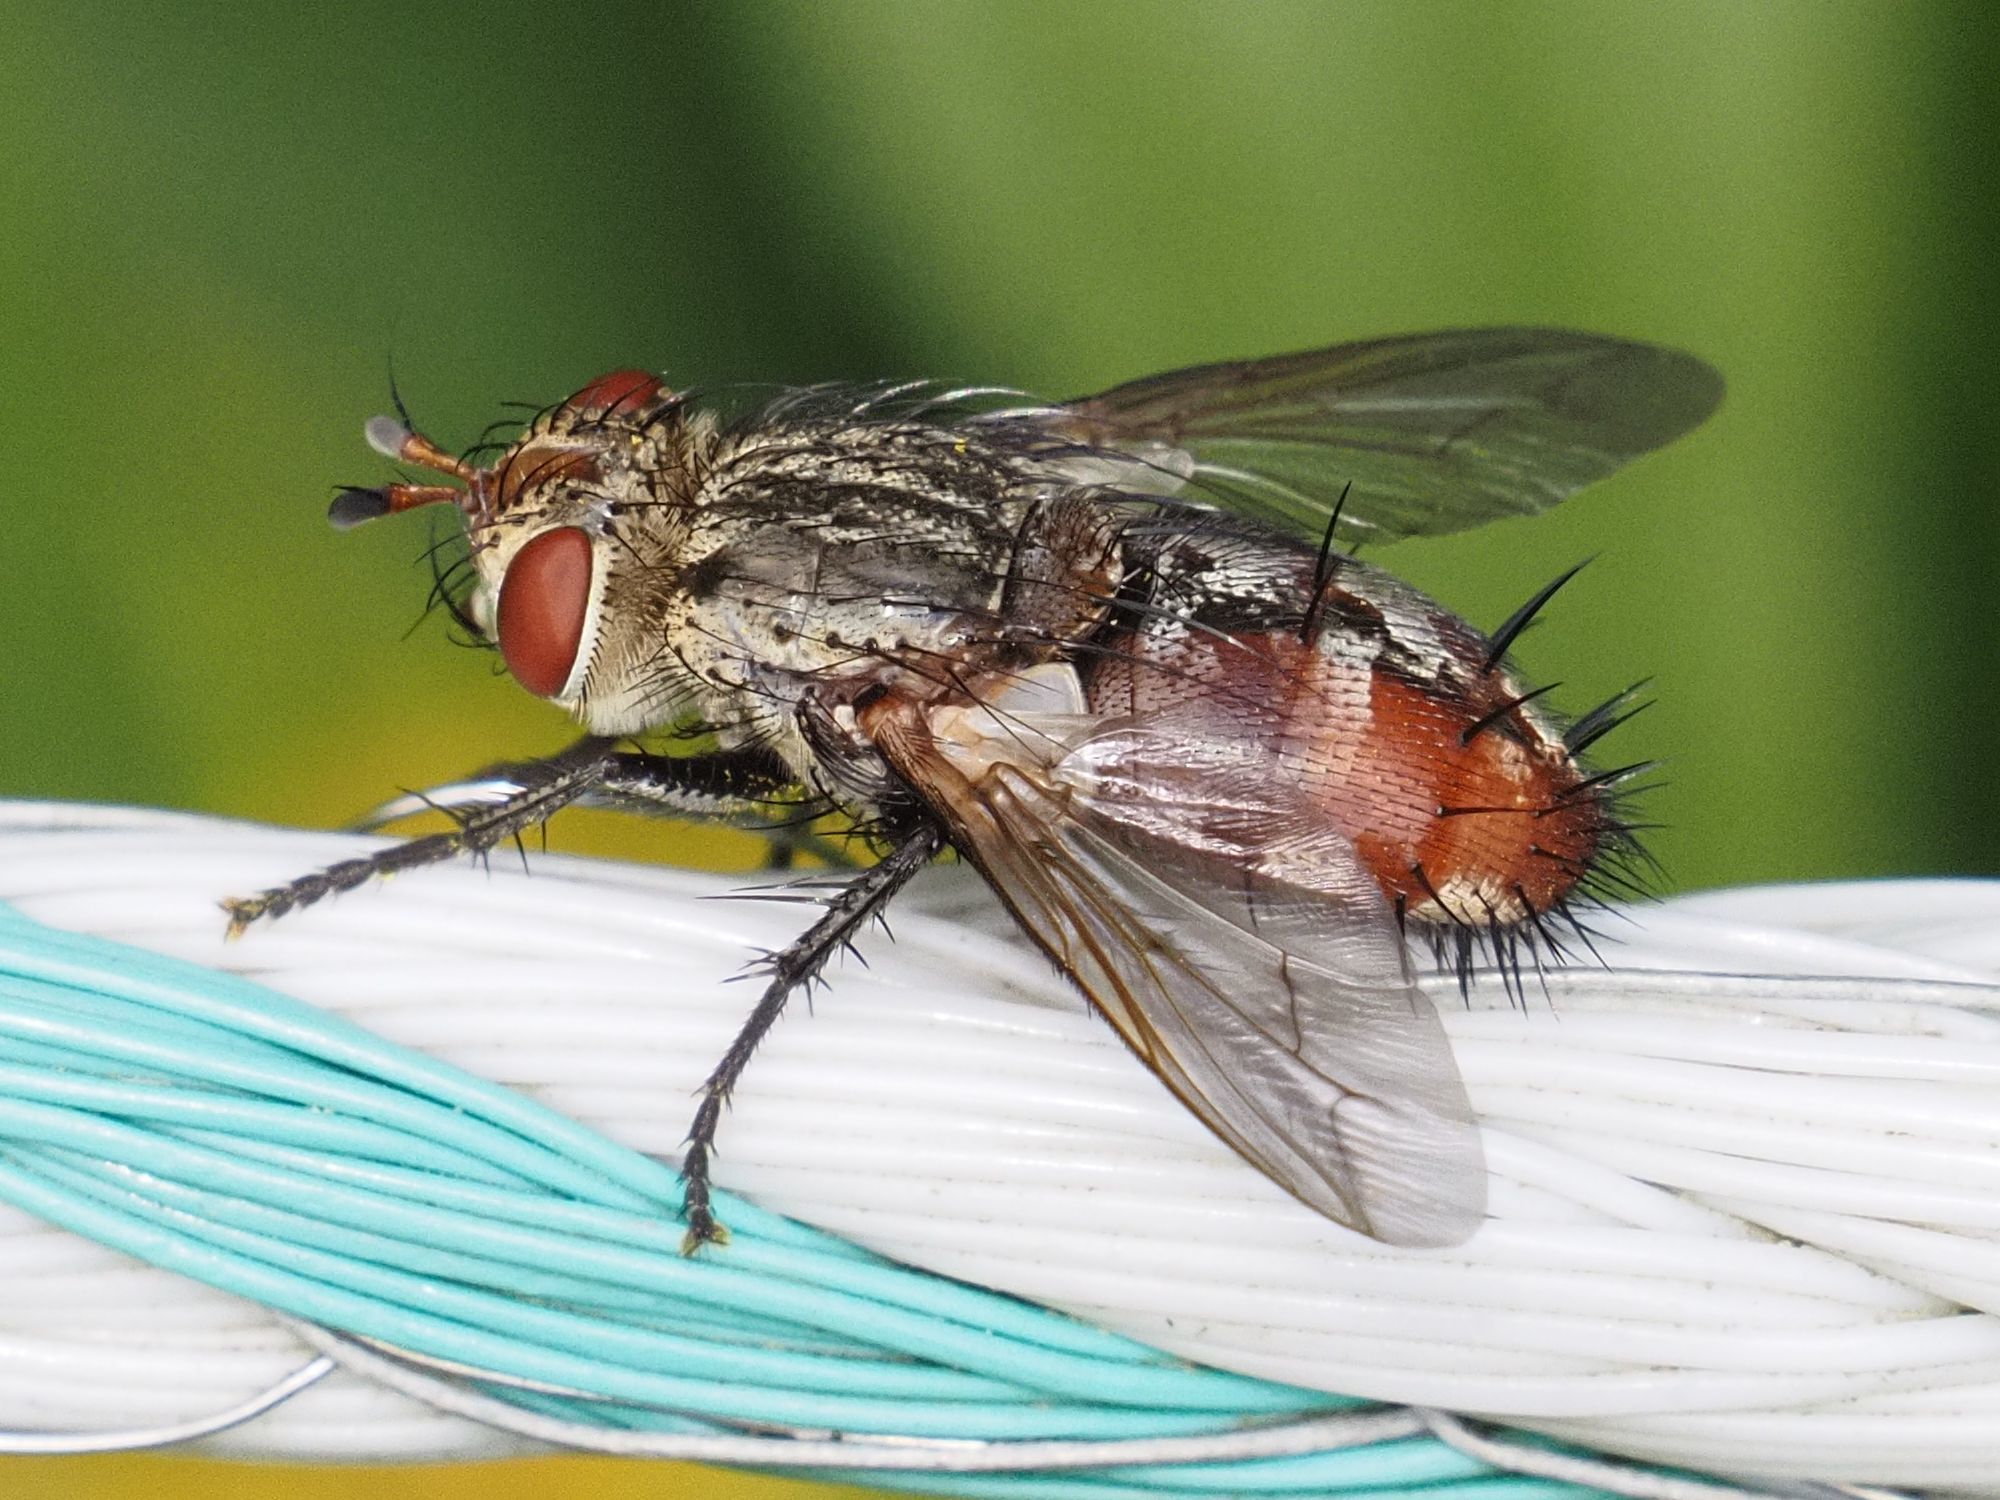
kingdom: Animalia
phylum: Arthropoda
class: Insecta
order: Diptera
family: Tachinidae
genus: Peleteria
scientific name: Peleteria javana
